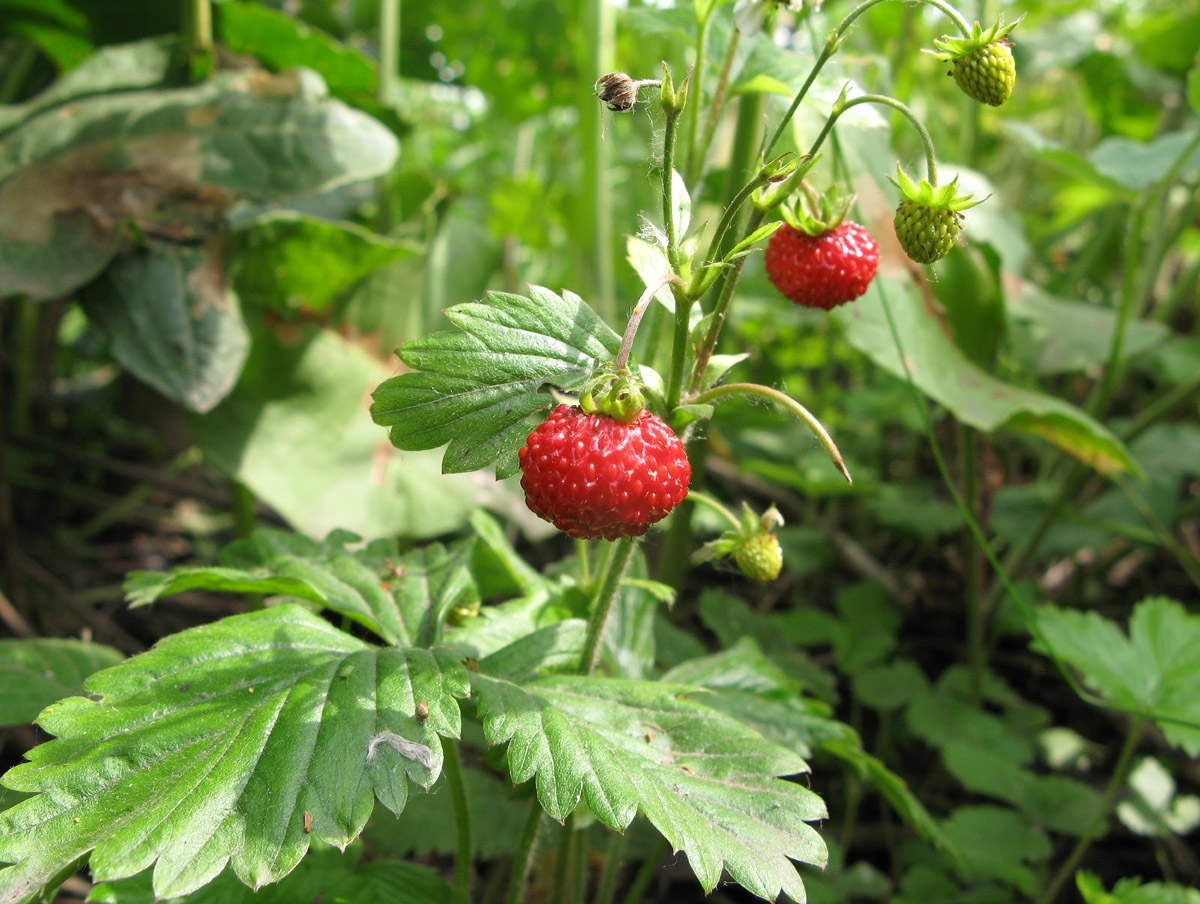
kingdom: Plantae
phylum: Tracheophyta
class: Magnoliopsida
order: Rosales
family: Rosaceae
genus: Fragaria
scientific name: Fragaria vesca
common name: Wild strawberry
